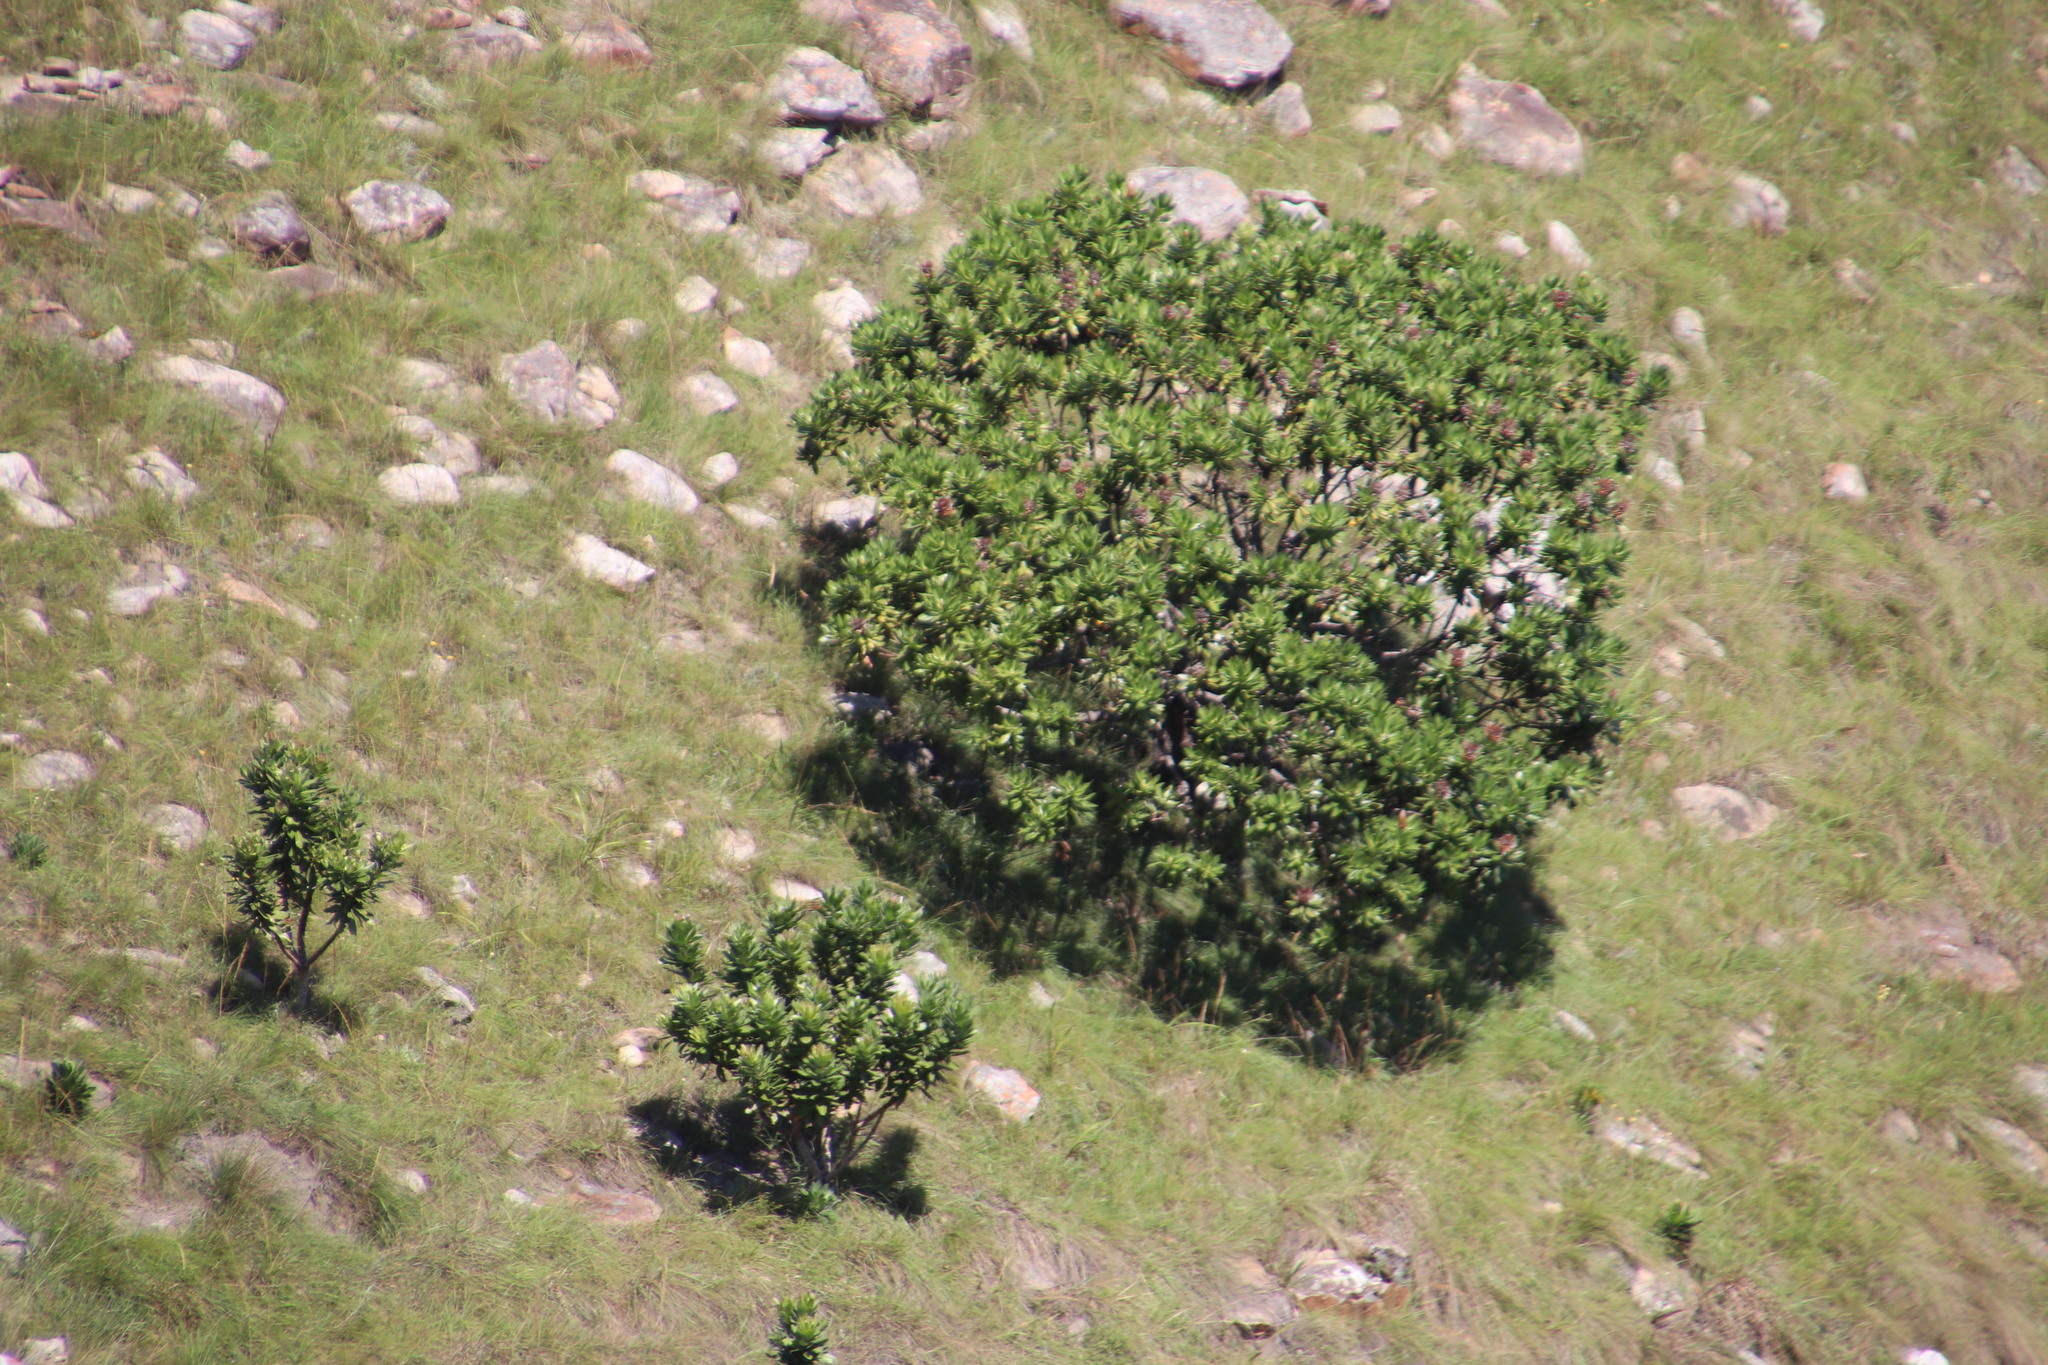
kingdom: Plantae
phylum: Tracheophyta
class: Magnoliopsida
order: Proteales
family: Proteaceae
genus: Protea
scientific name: Protea roupelliae
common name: Silver sugarbush
